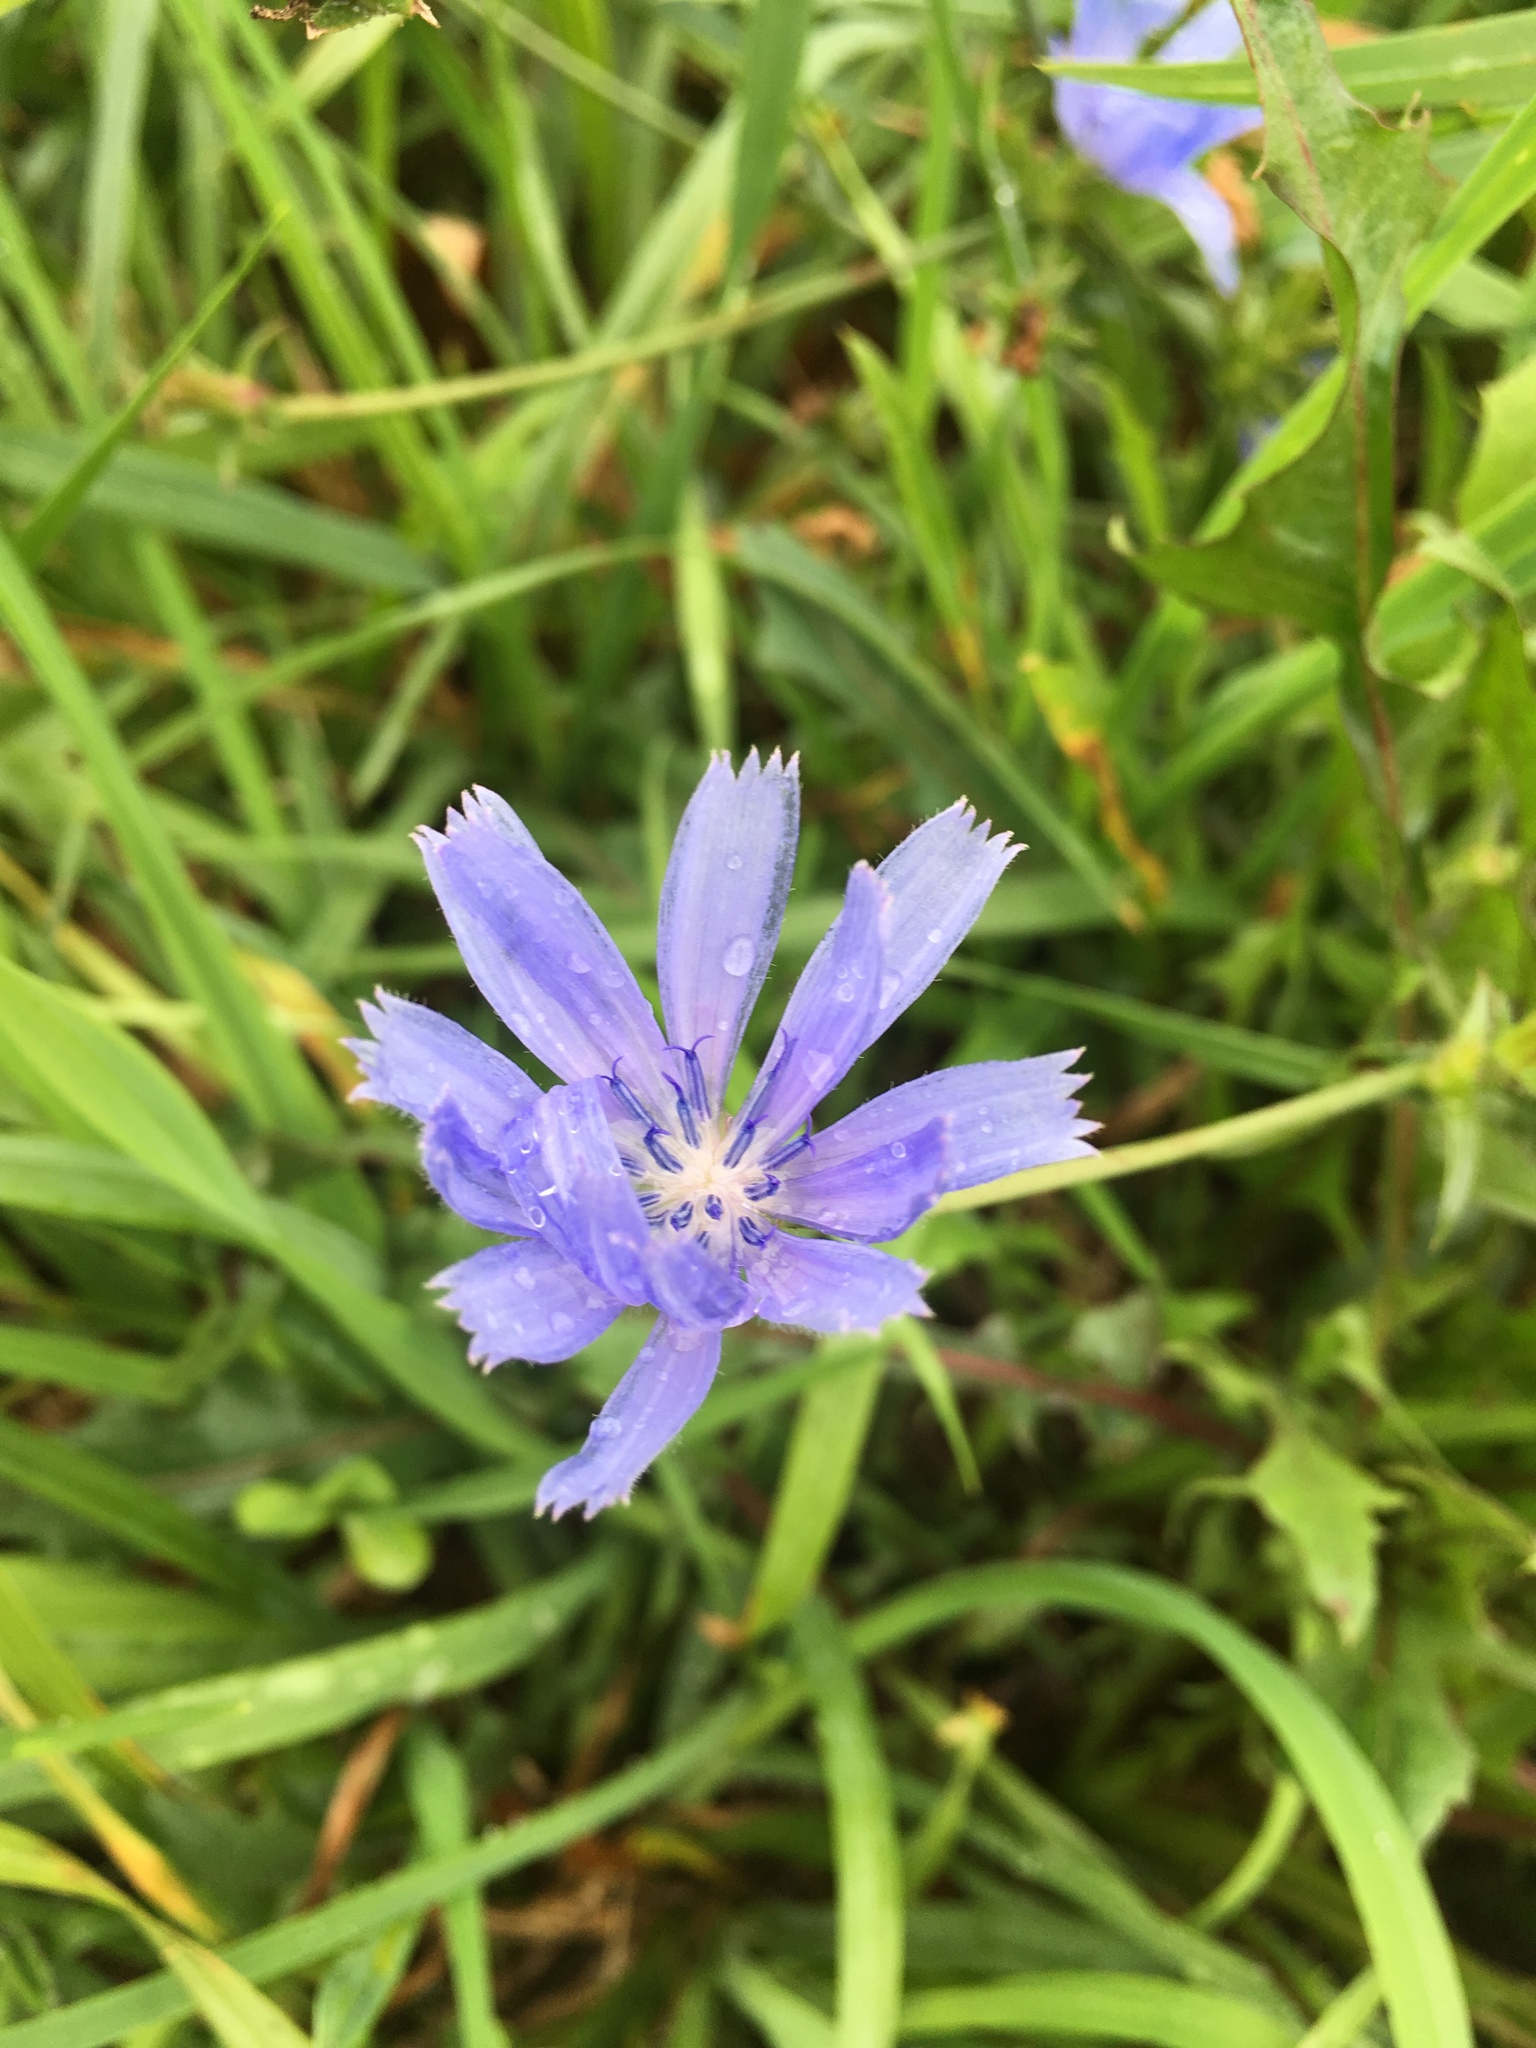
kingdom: Plantae
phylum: Tracheophyta
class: Magnoliopsida
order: Asterales
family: Asteraceae
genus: Cichorium
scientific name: Cichorium intybus
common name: Chicory
